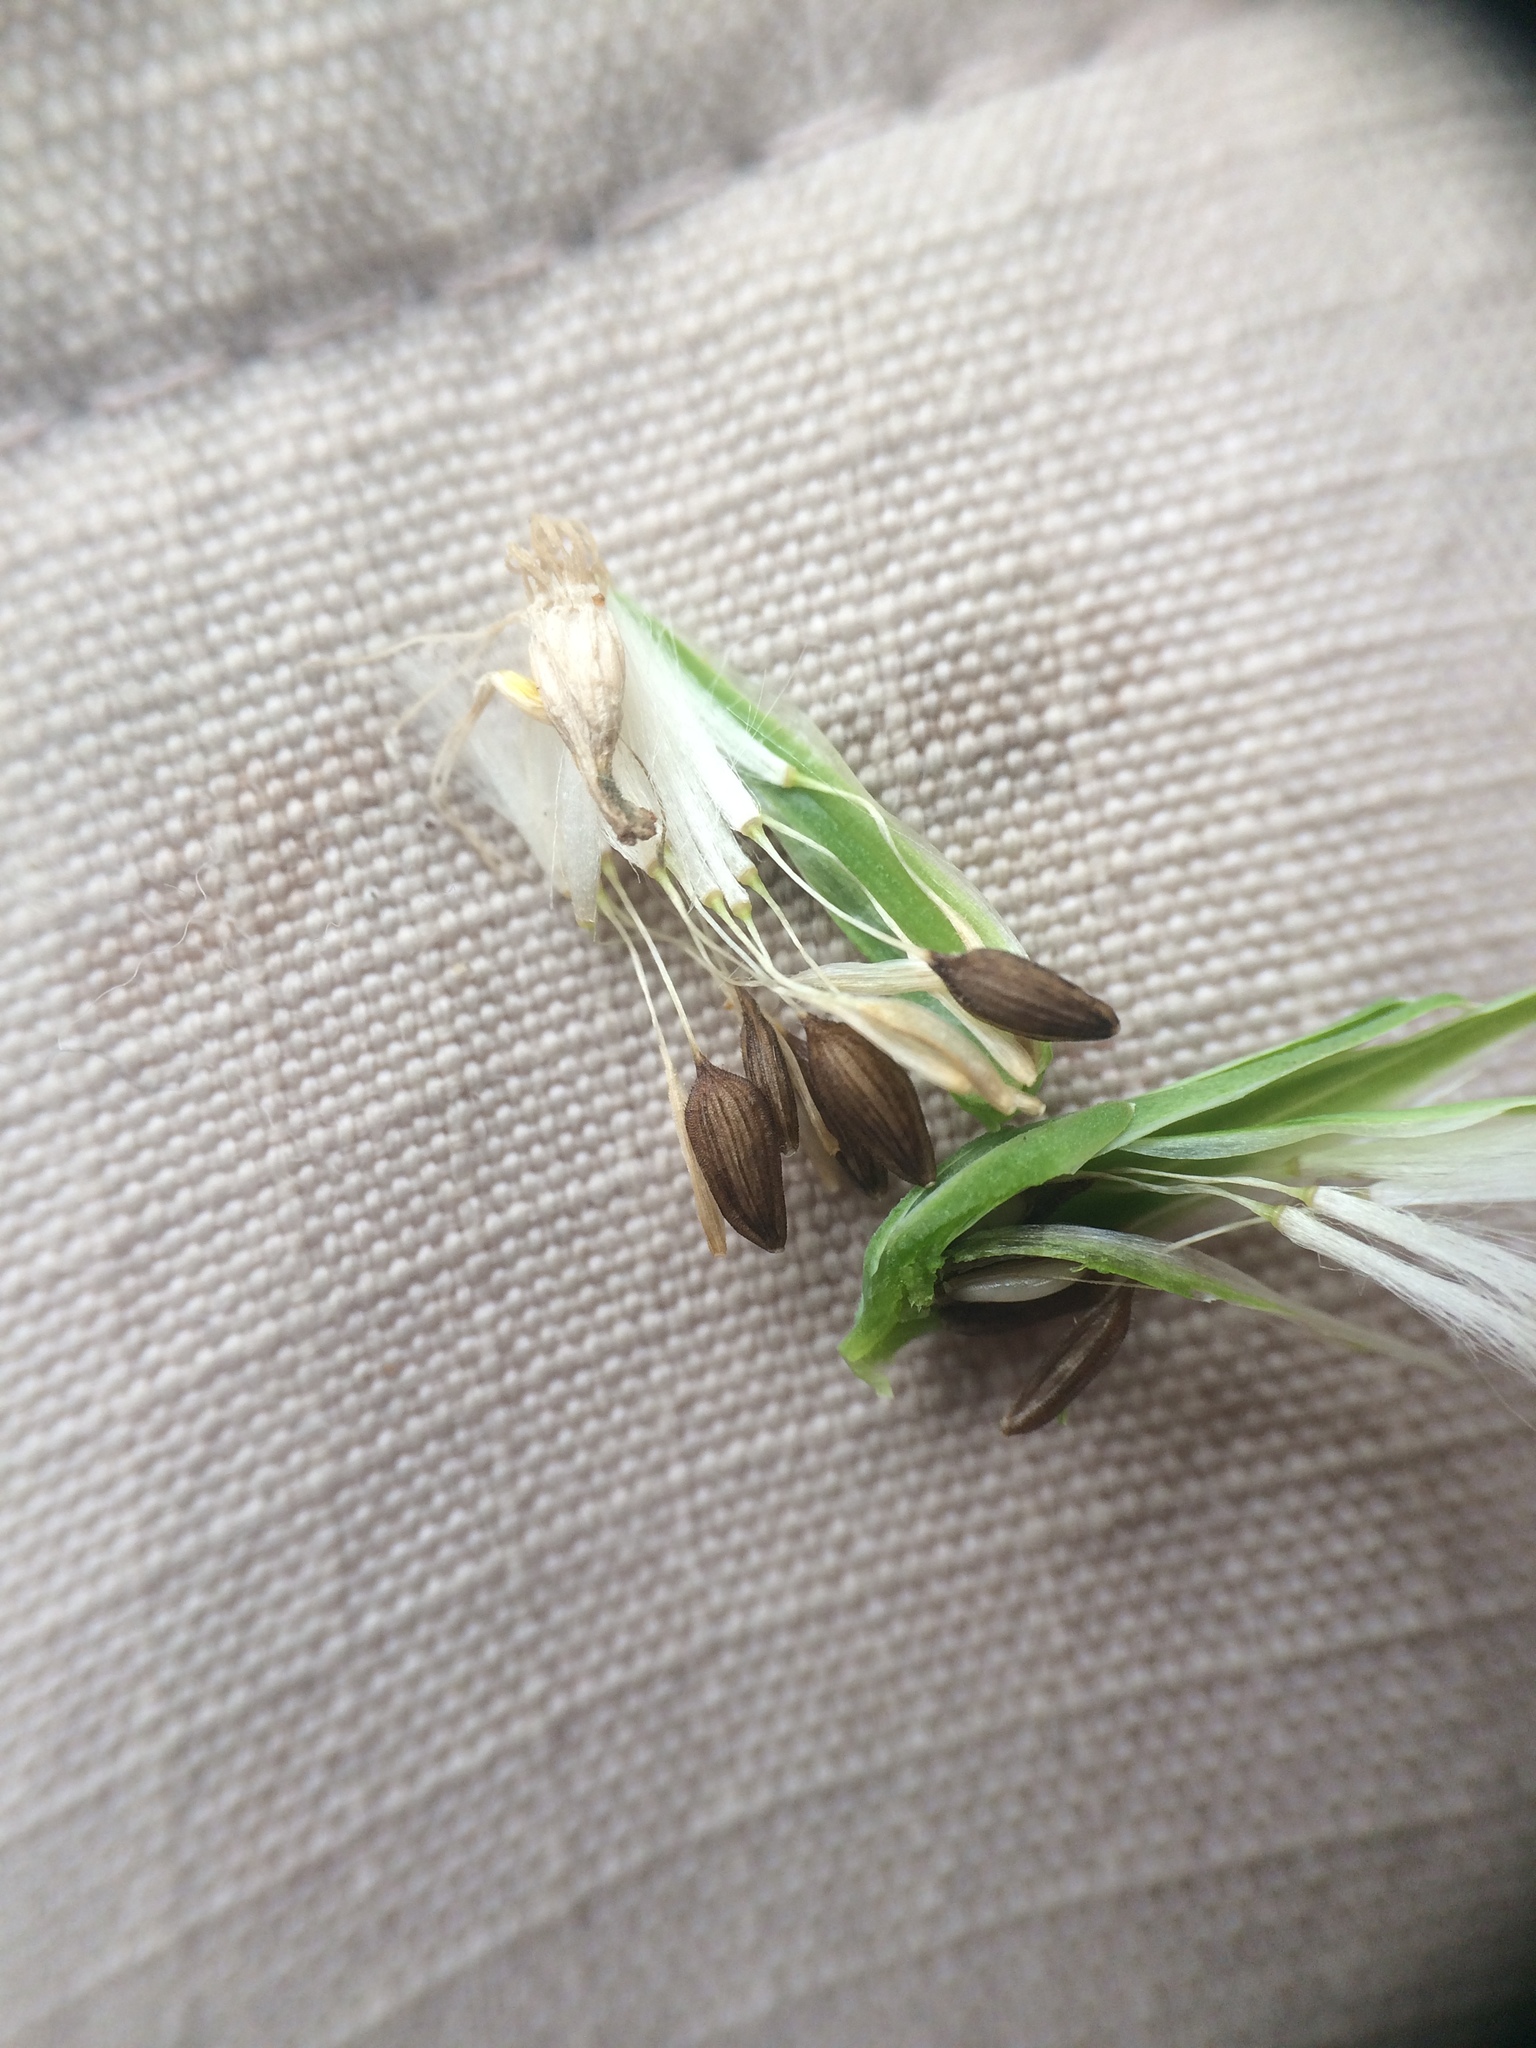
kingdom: Plantae
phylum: Tracheophyta
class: Magnoliopsida
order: Asterales
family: Asteraceae
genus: Lactuca
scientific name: Lactuca serriola
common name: Prickly lettuce
